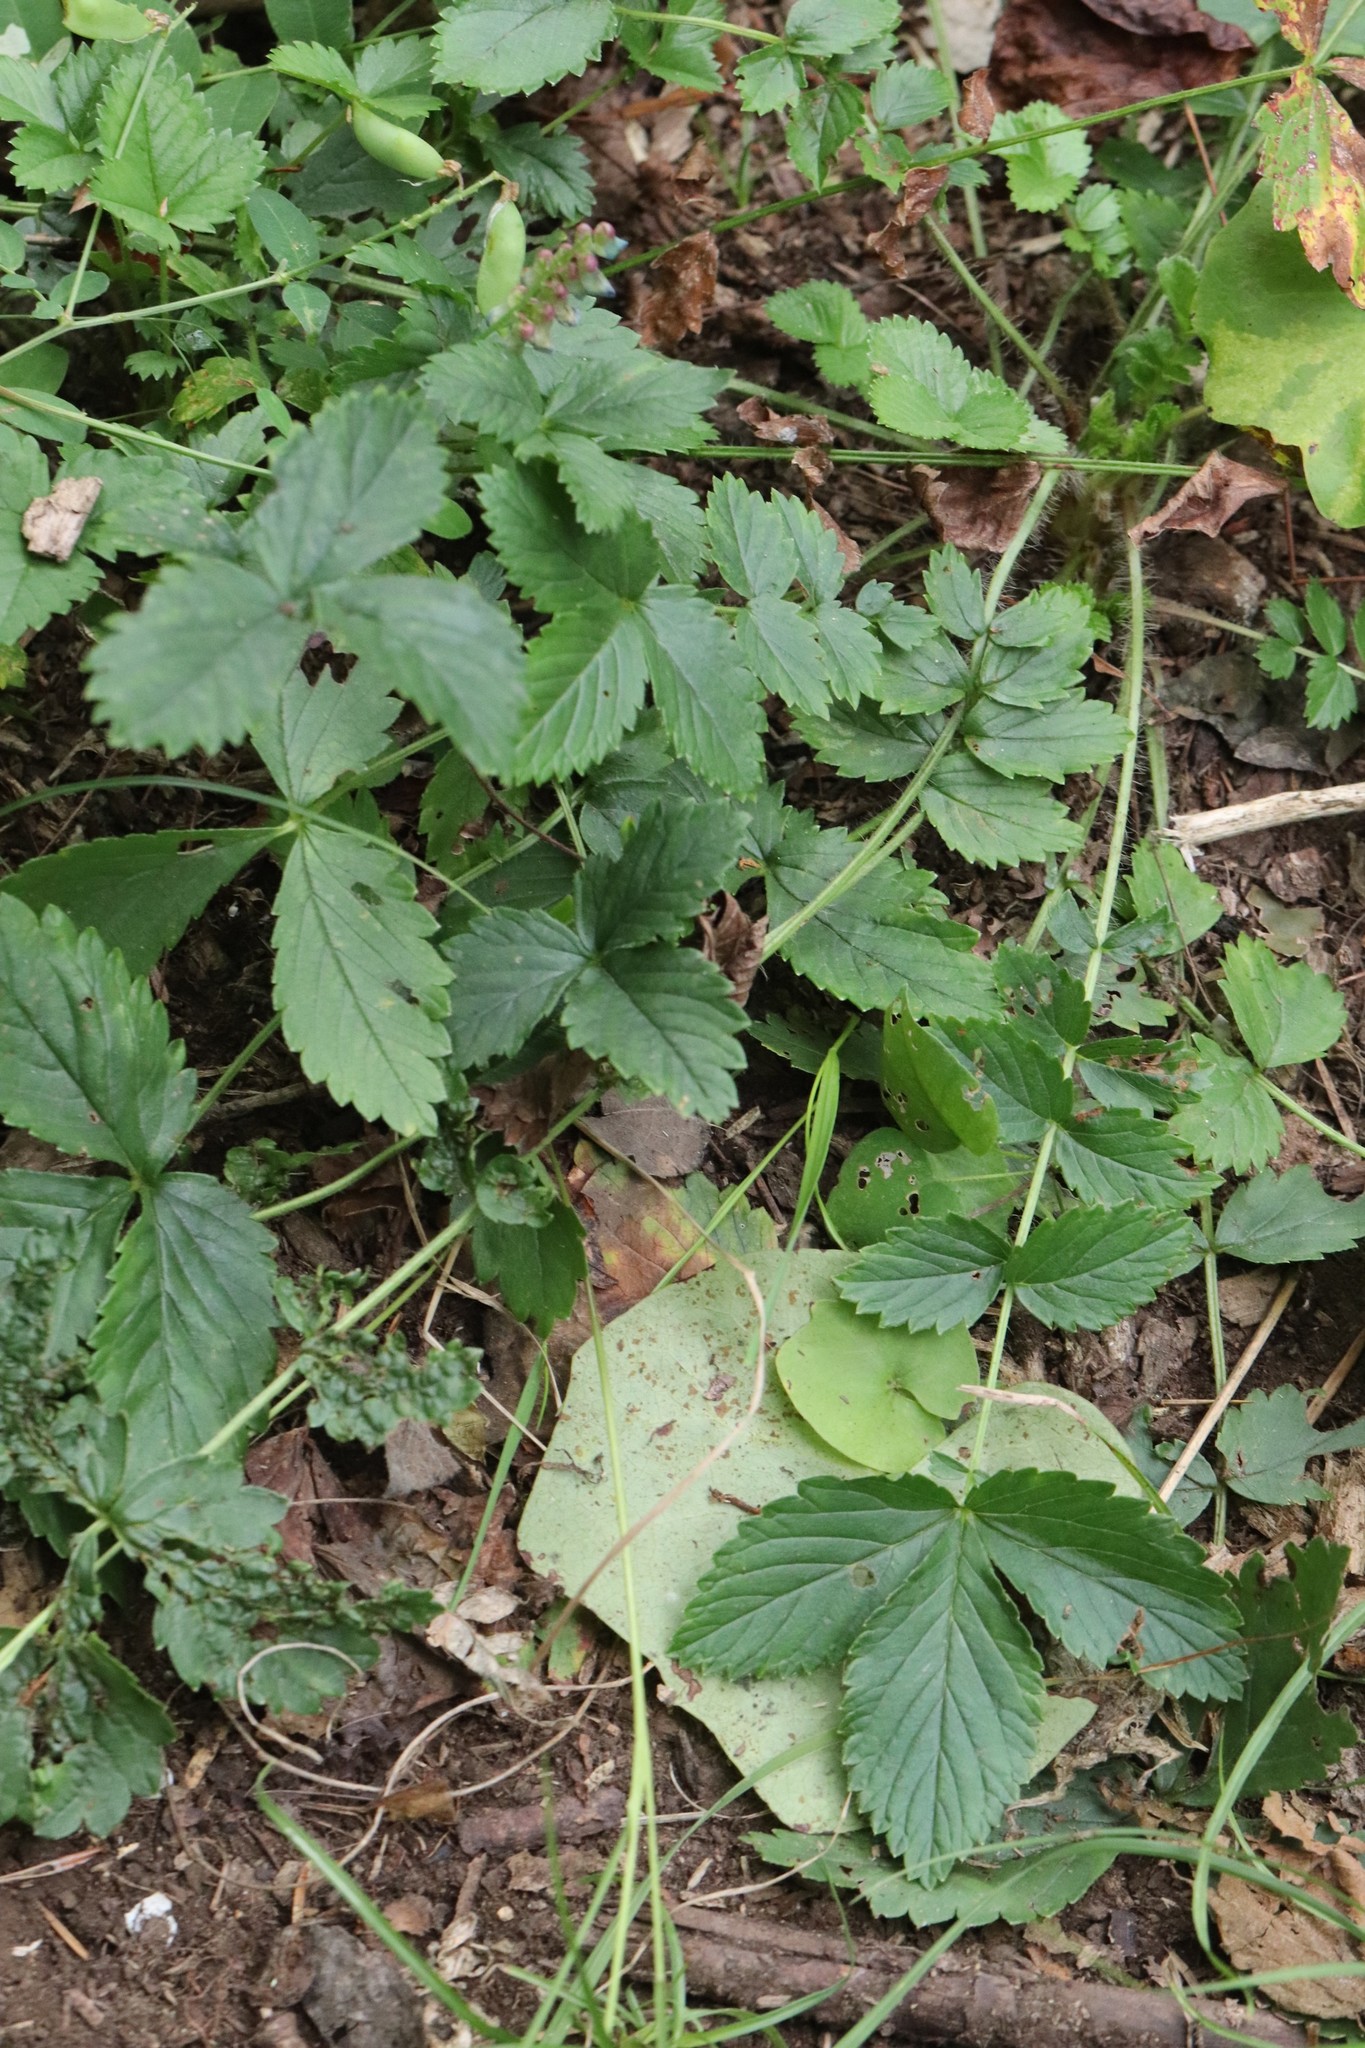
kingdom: Plantae
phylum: Tracheophyta
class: Magnoliopsida
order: Rosales
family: Rosaceae
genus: Potentilla
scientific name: Potentilla fragarioides
